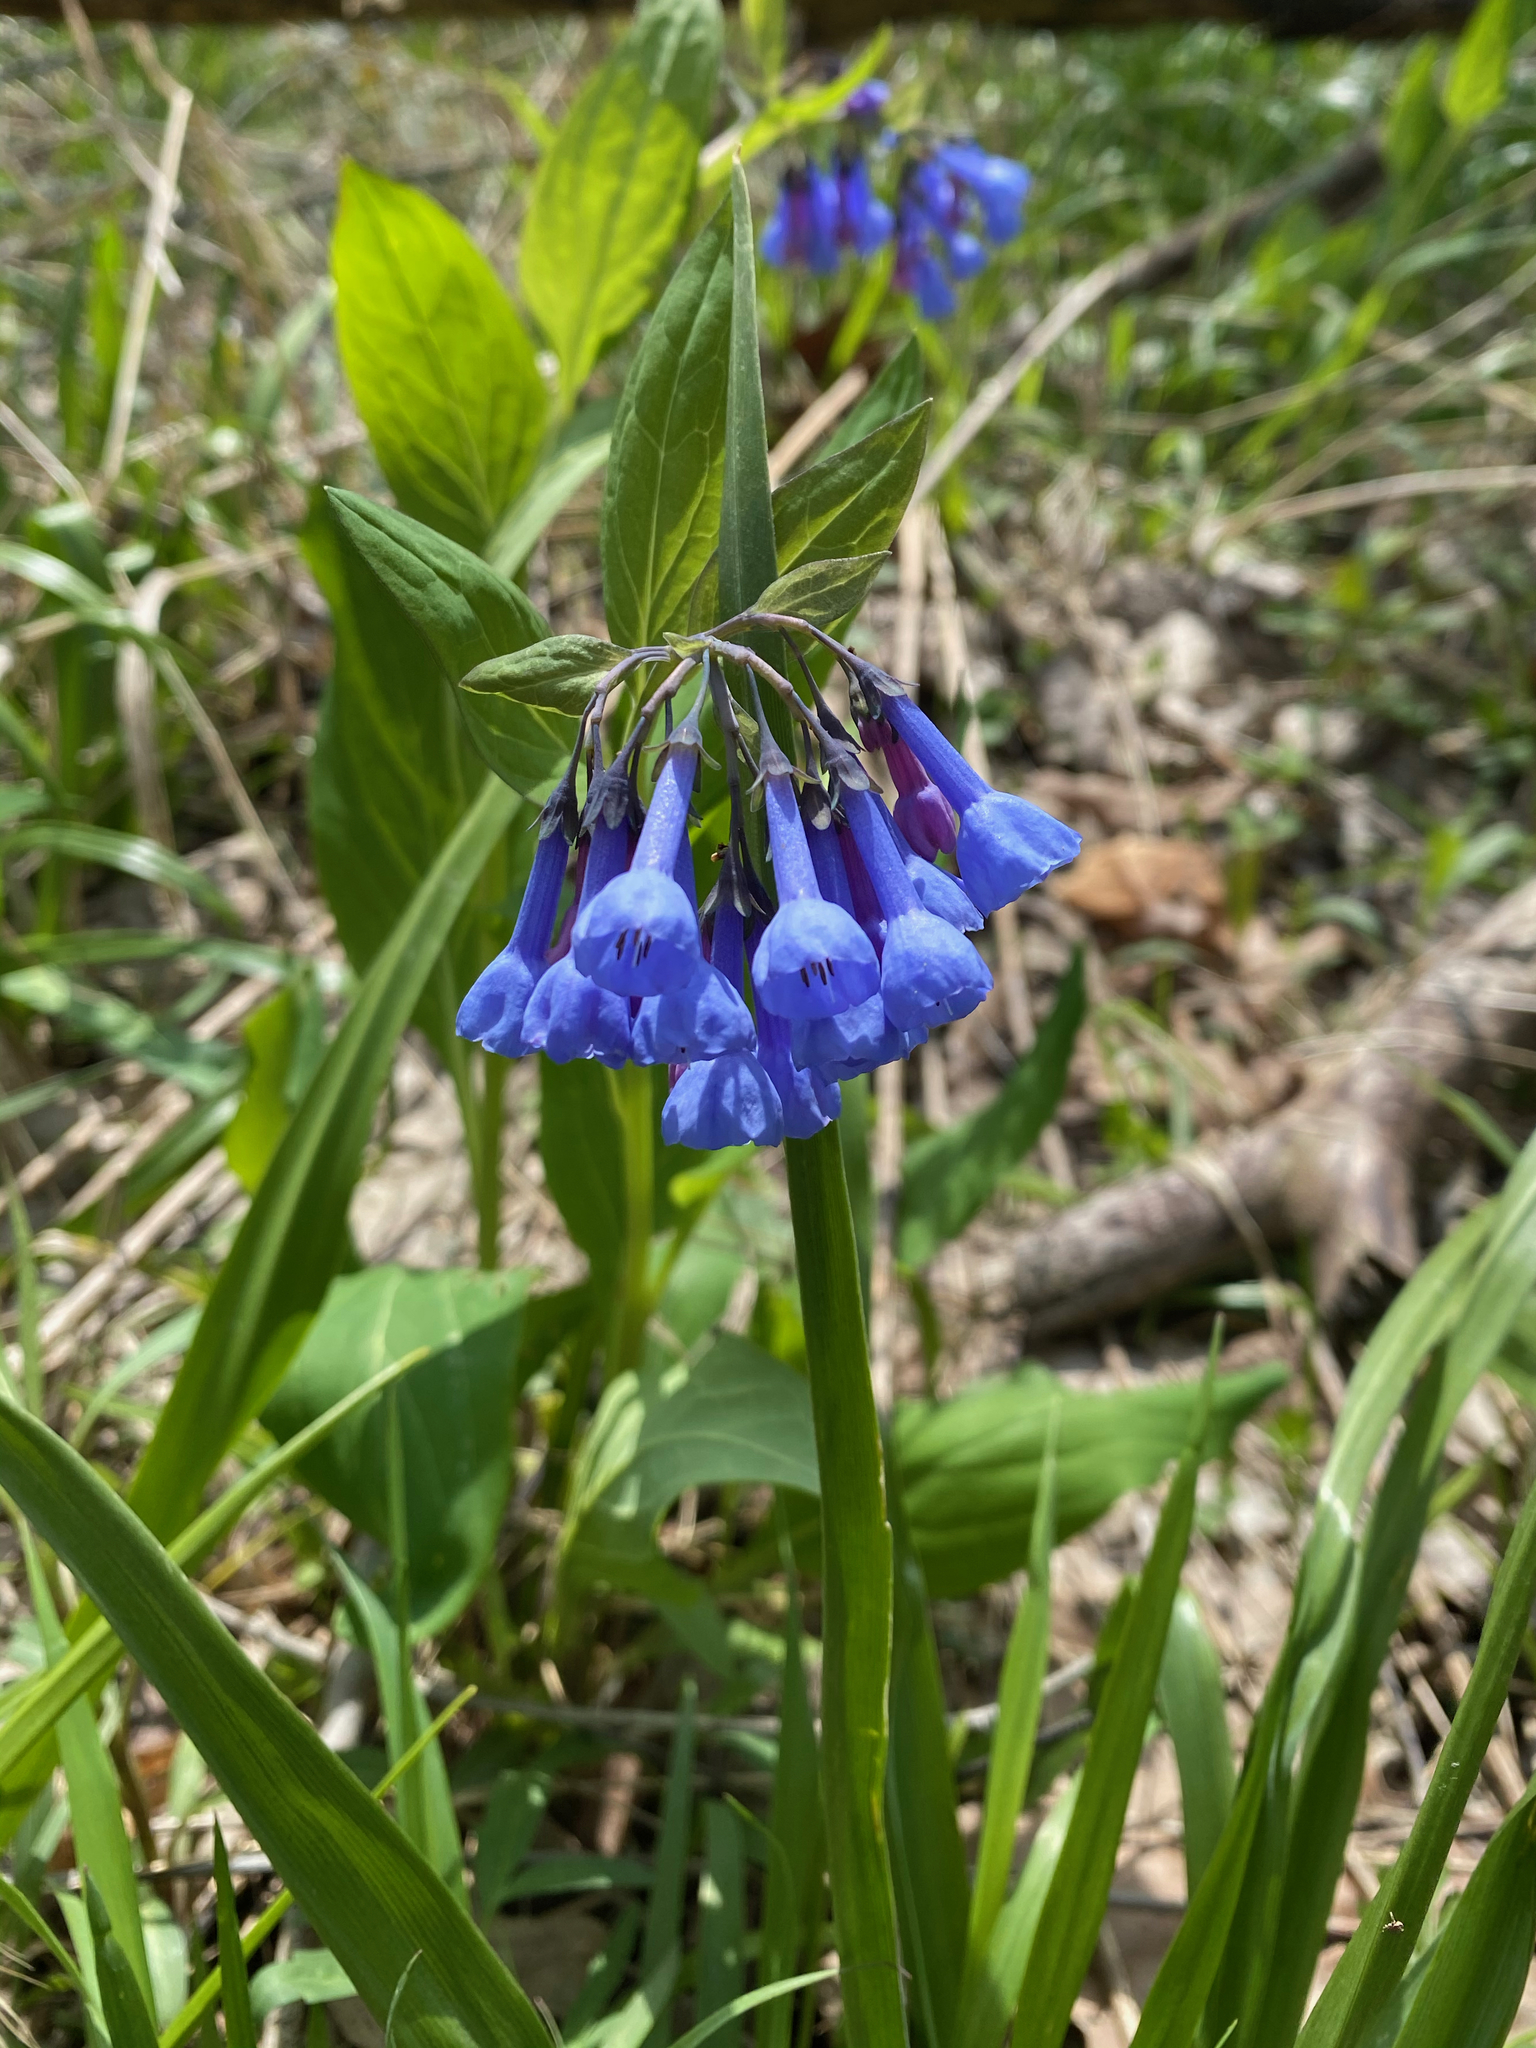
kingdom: Plantae
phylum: Tracheophyta
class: Magnoliopsida
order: Boraginales
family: Boraginaceae
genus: Mertensia
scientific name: Mertensia virginica
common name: Virginia bluebells
